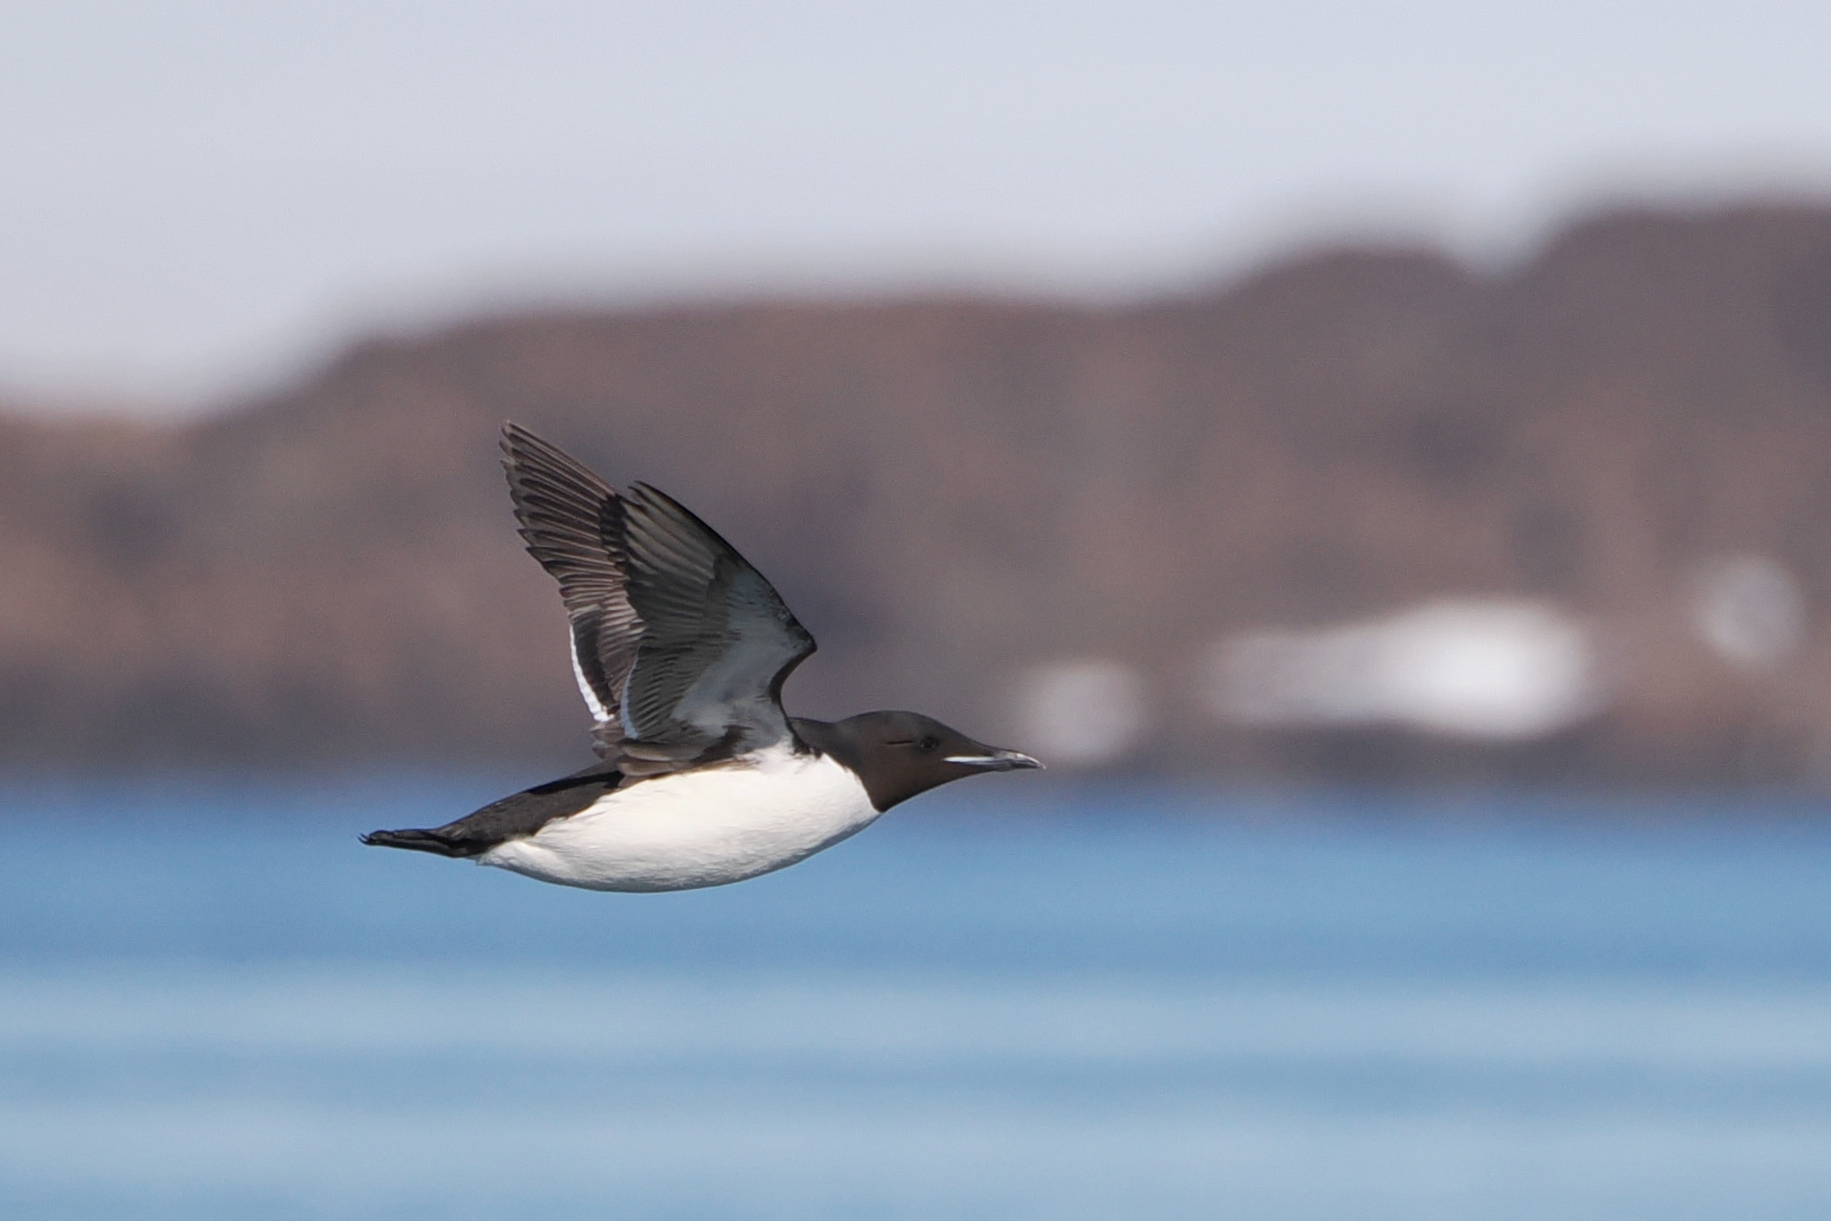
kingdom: Animalia
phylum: Chordata
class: Aves
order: Charadriiformes
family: Alcidae
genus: Uria
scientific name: Uria lomvia
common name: Thick-billed murre
